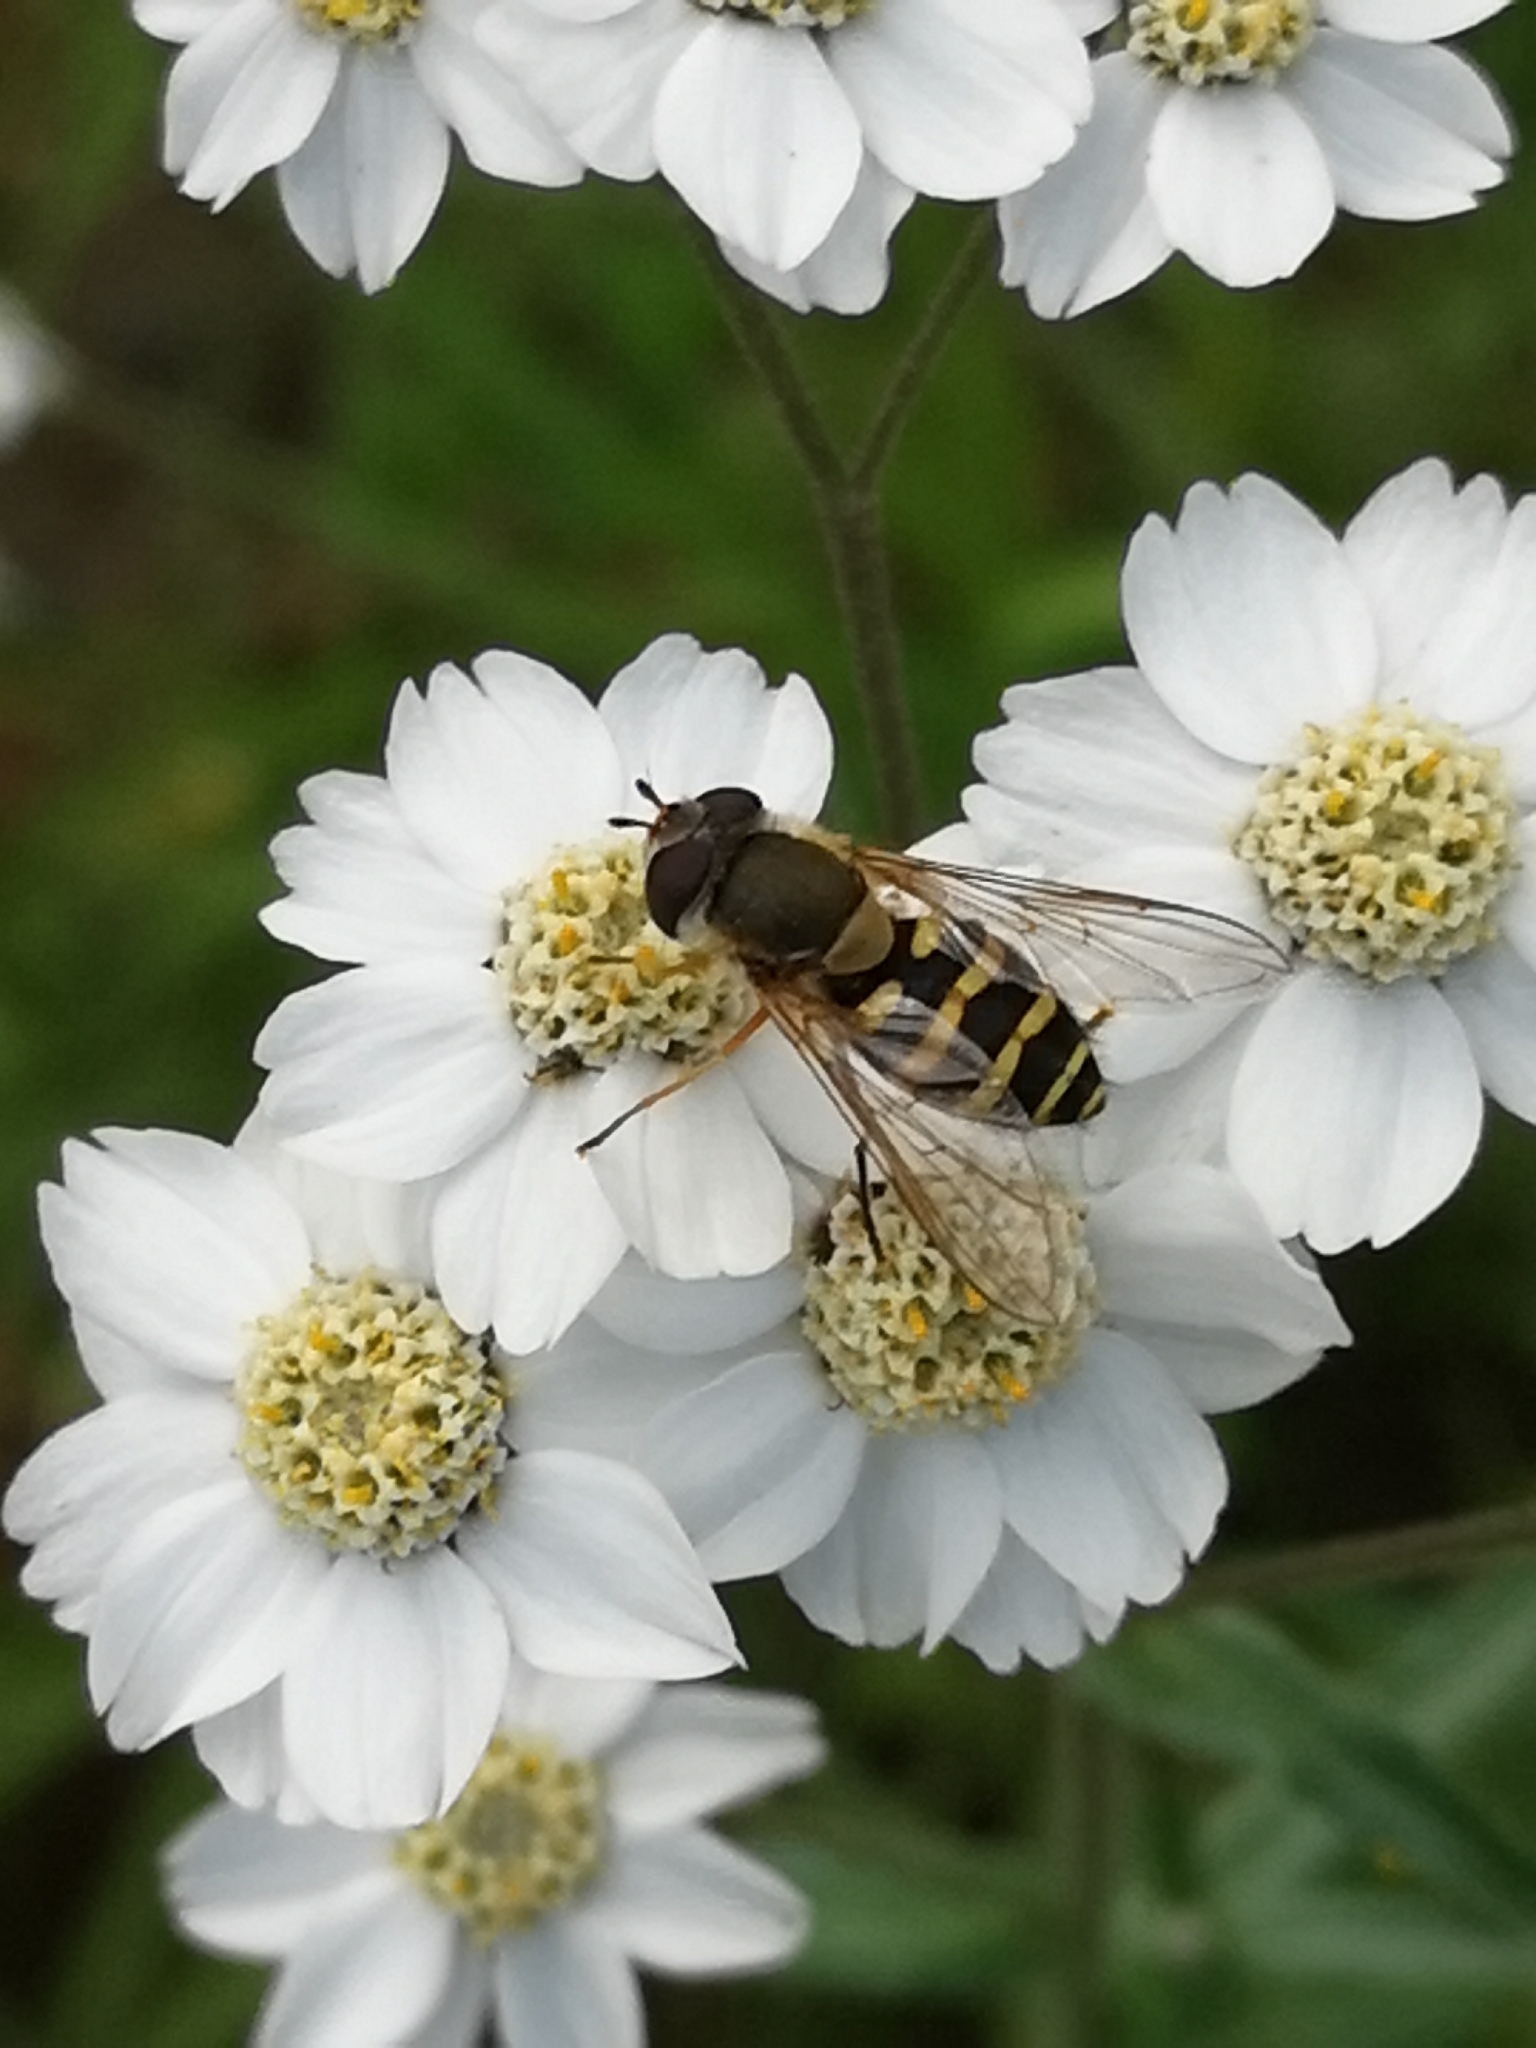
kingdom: Animalia
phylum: Arthropoda
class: Insecta
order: Diptera
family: Syrphidae
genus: Syrphus
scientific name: Syrphus
